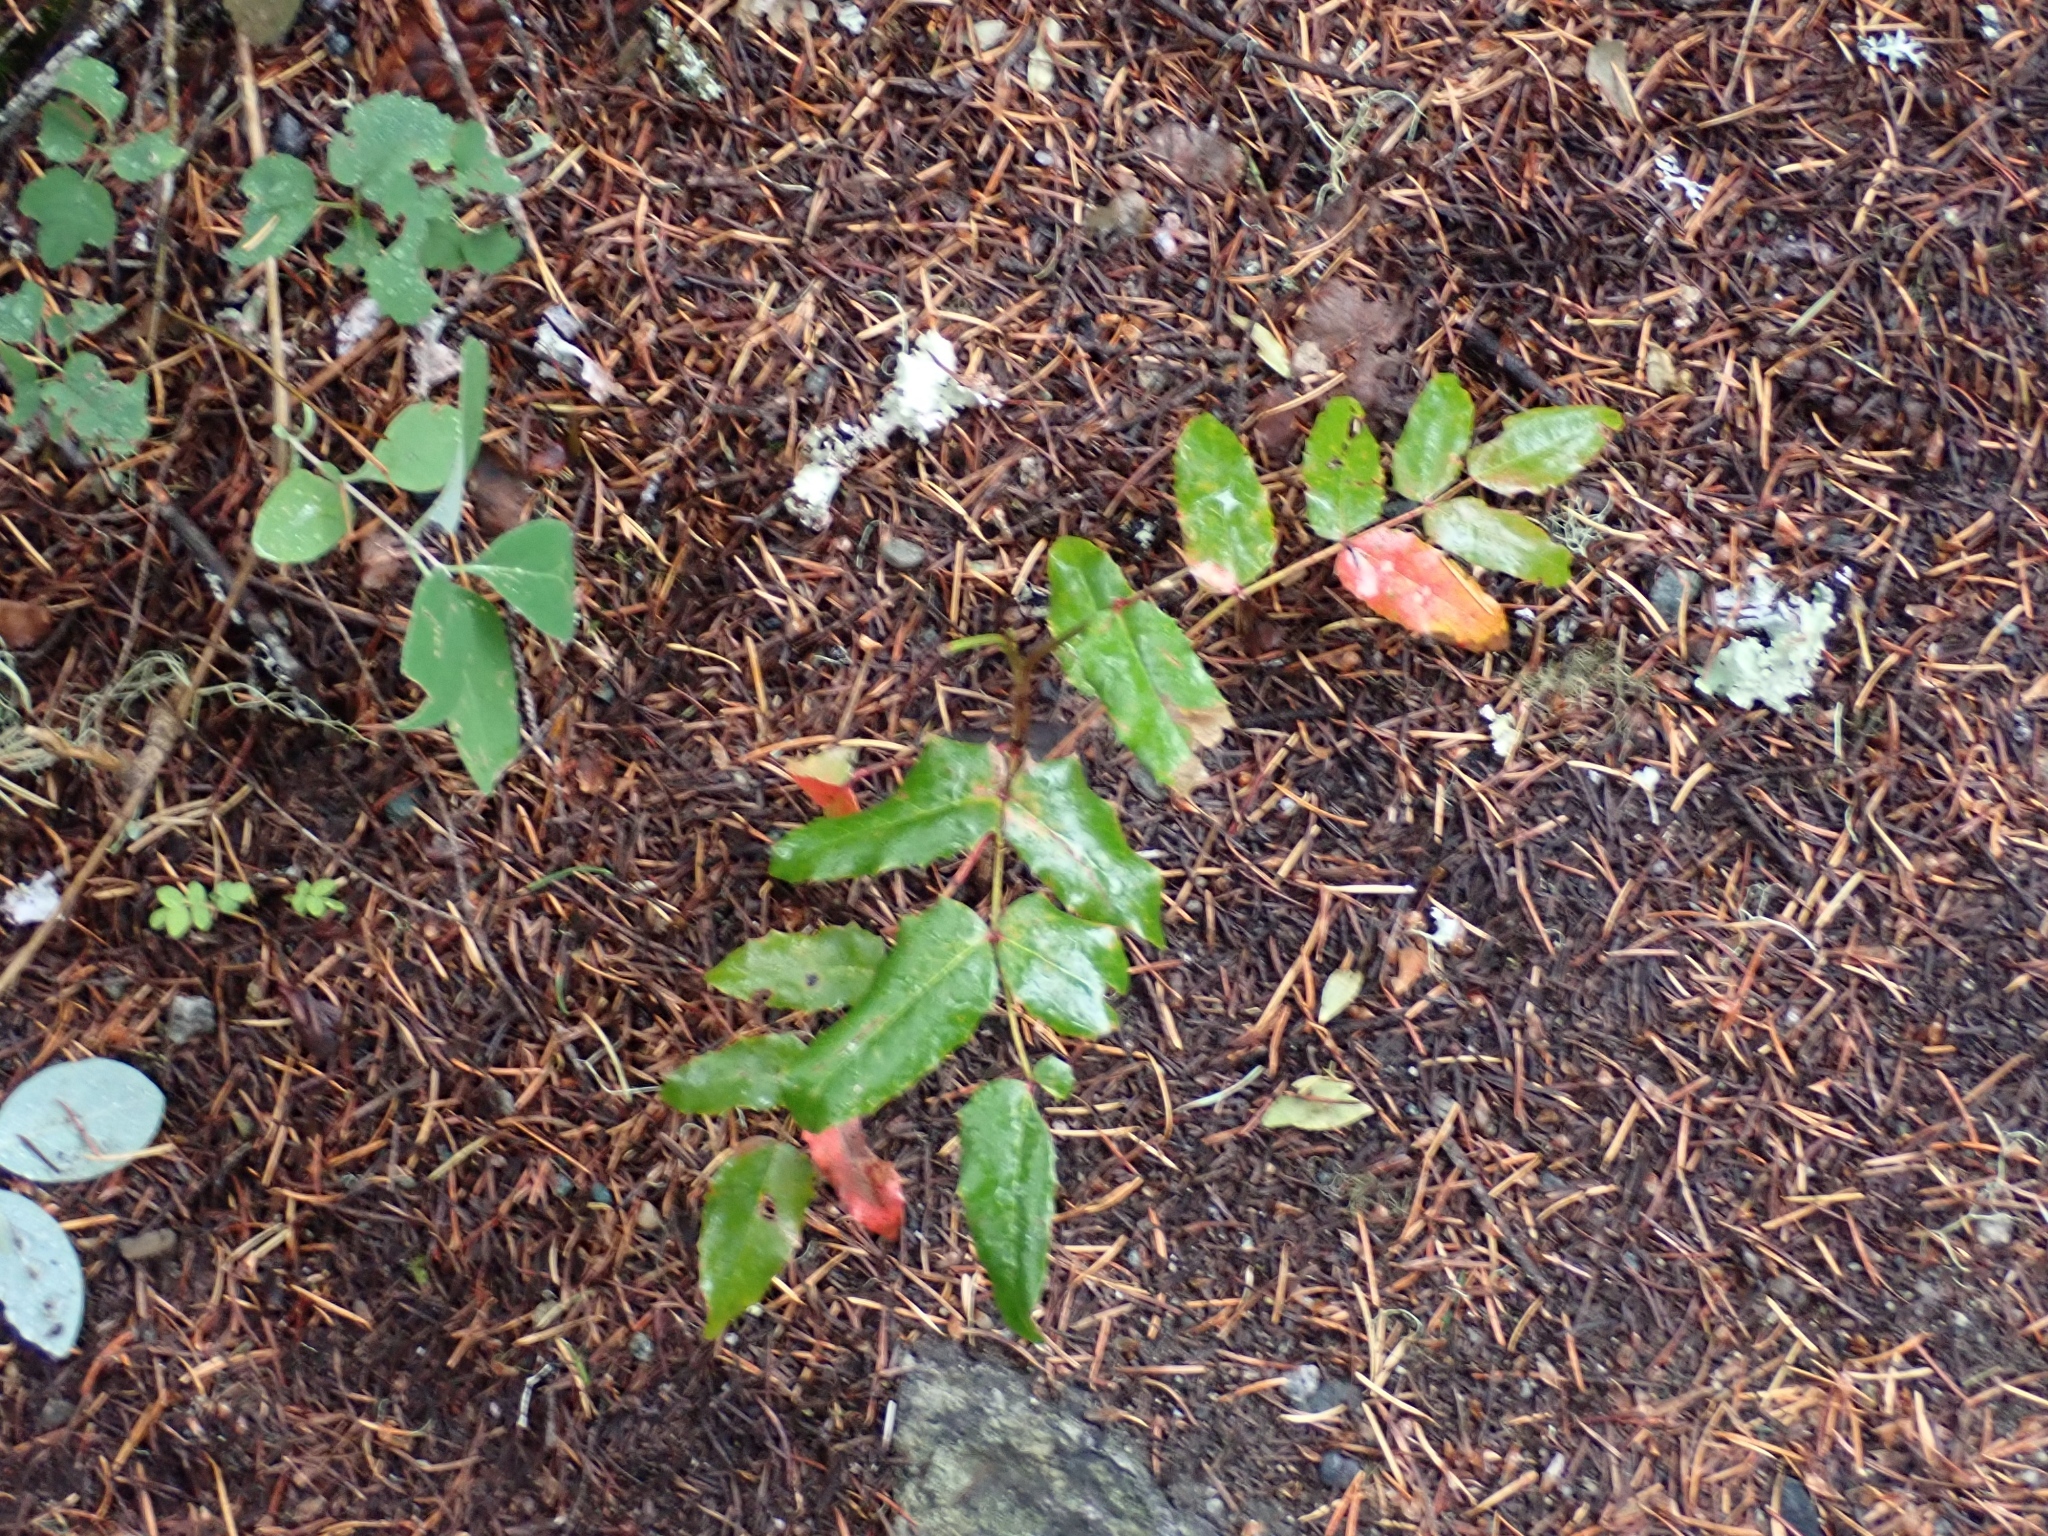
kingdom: Plantae
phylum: Tracheophyta
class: Magnoliopsida
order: Ranunculales
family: Berberidaceae
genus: Mahonia
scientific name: Mahonia aquifolium
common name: Oregon-grape
